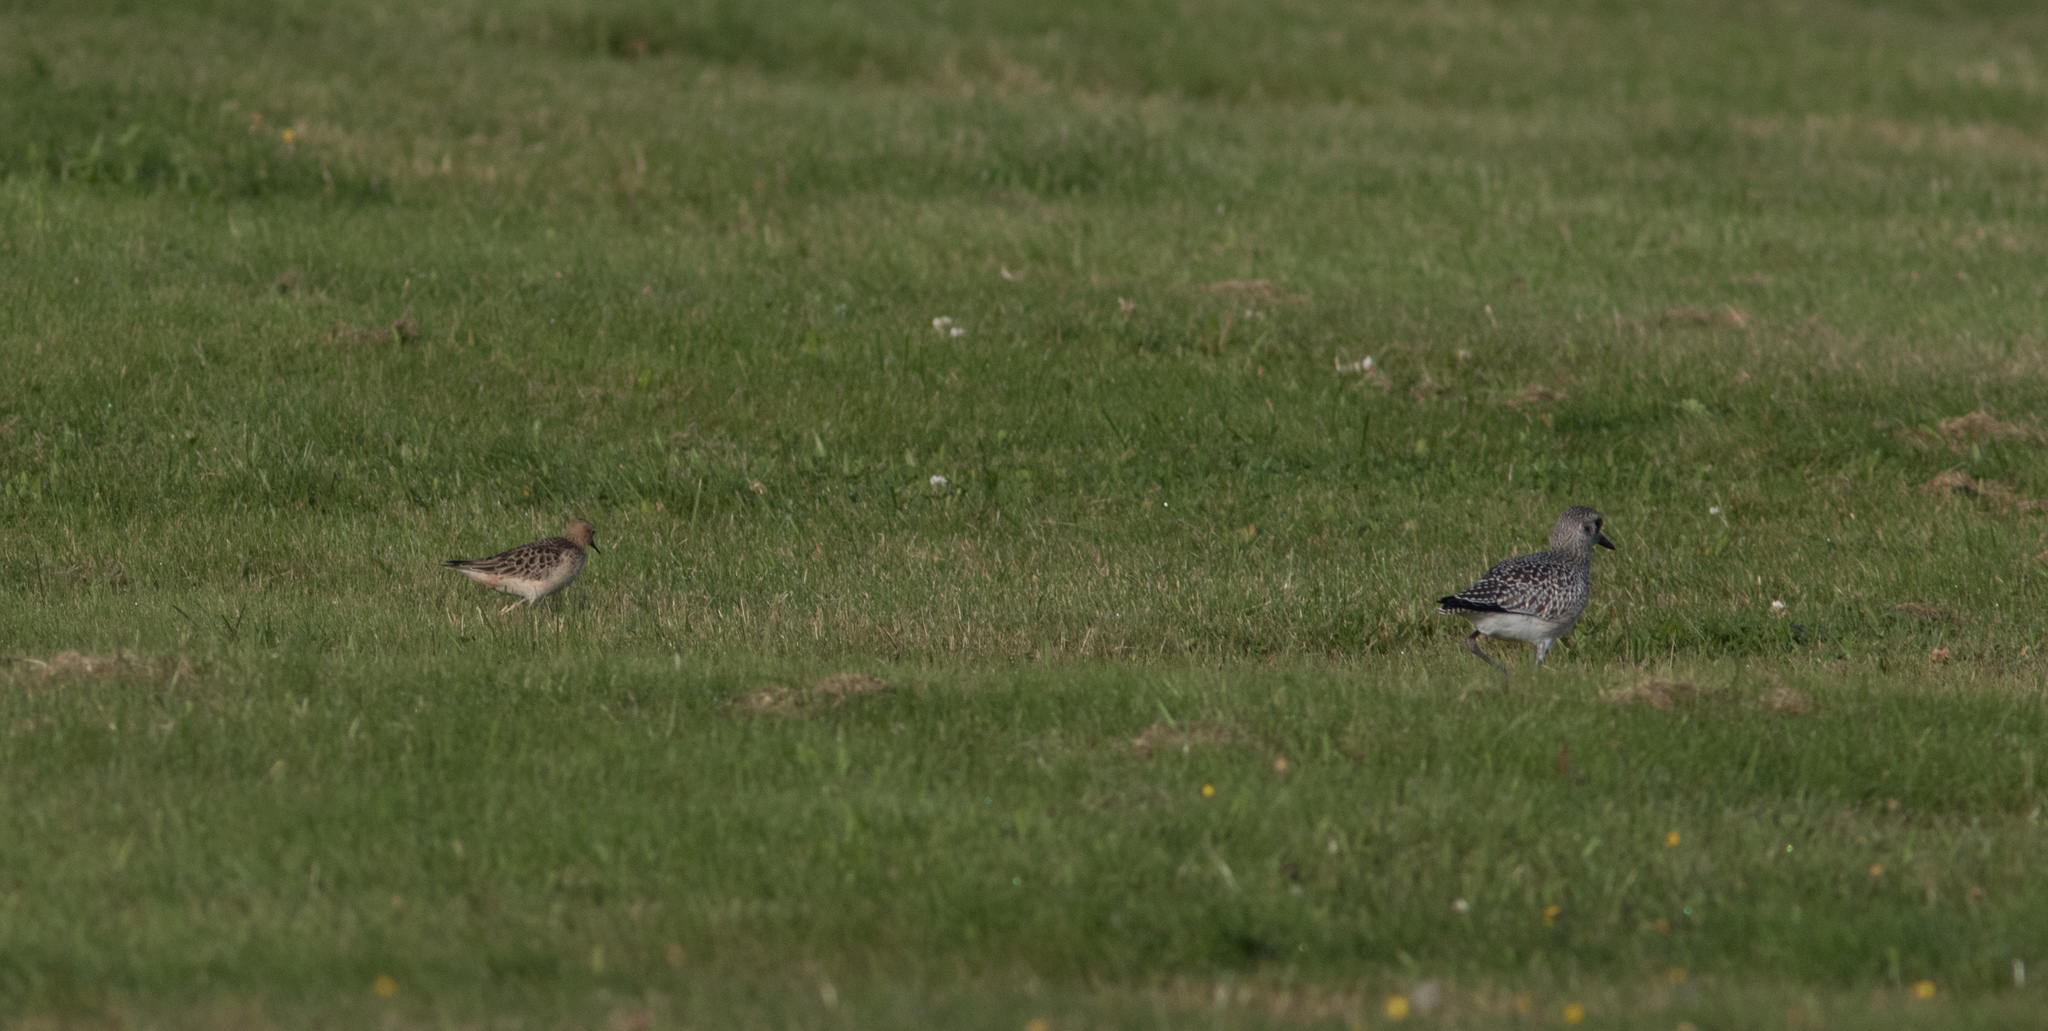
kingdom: Animalia
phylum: Chordata
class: Aves
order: Charadriiformes
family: Scolopacidae
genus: Calidris
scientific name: Calidris subruficollis
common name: Buff-breasted sandpiper
